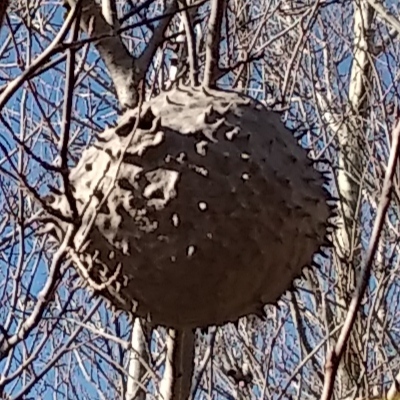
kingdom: Animalia
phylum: Arthropoda
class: Insecta
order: Hymenoptera
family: Eumenidae
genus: Polybia
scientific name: Polybia scutellaris
